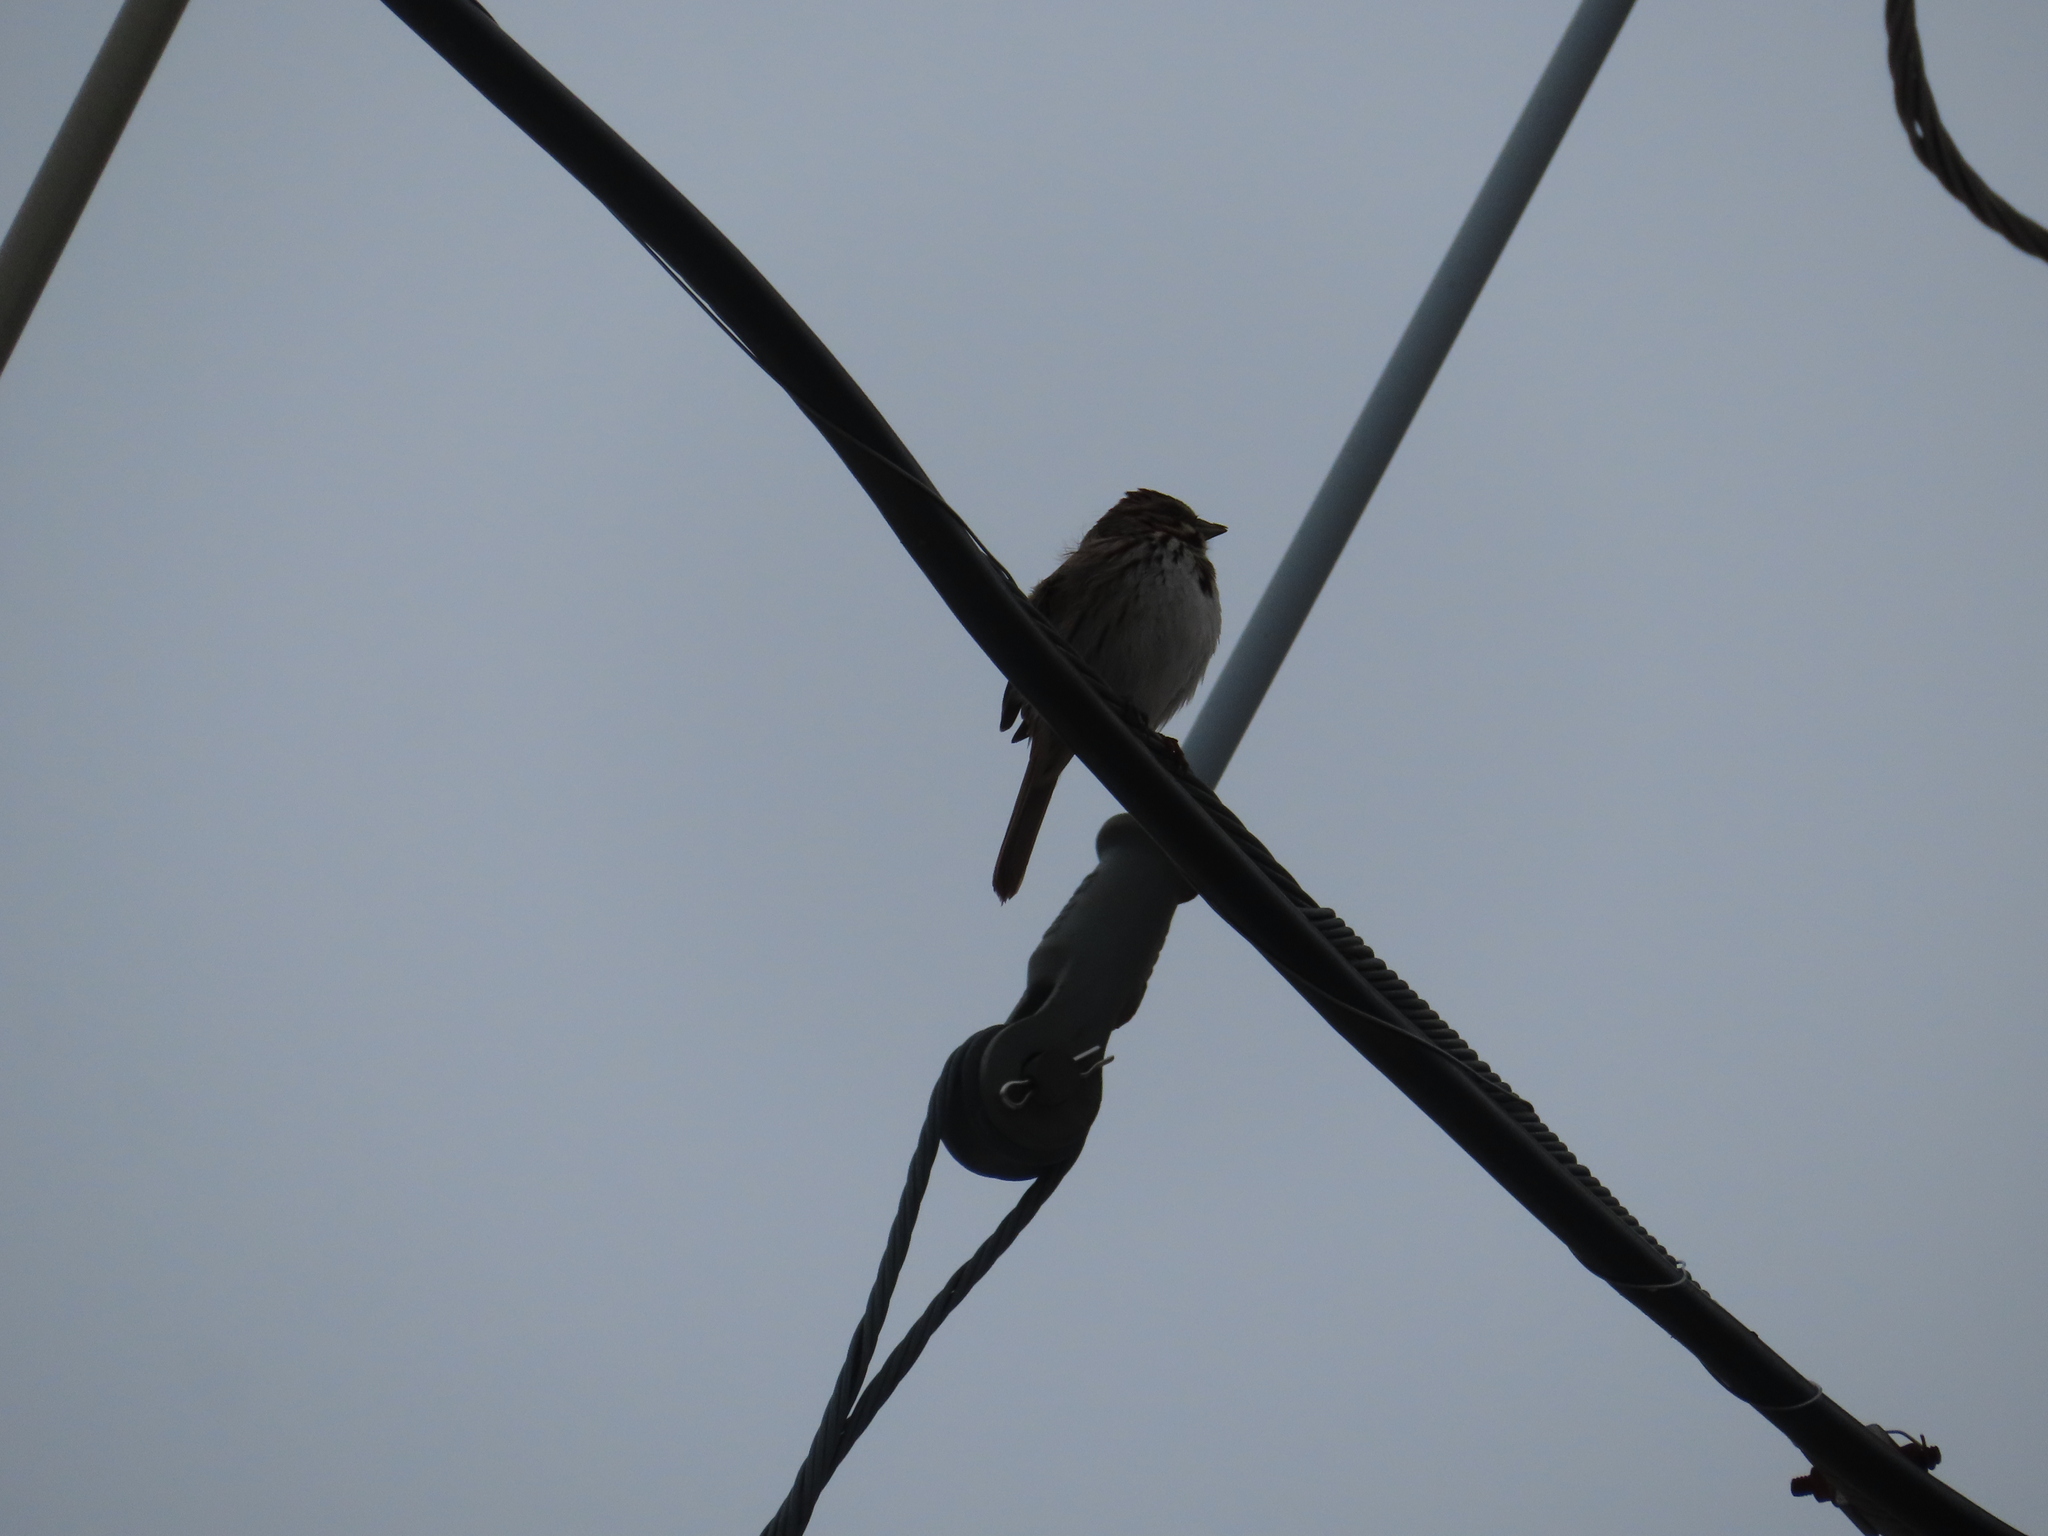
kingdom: Animalia
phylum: Chordata
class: Aves
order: Passeriformes
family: Passerellidae
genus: Melospiza
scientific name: Melospiza melodia
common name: Song sparrow
